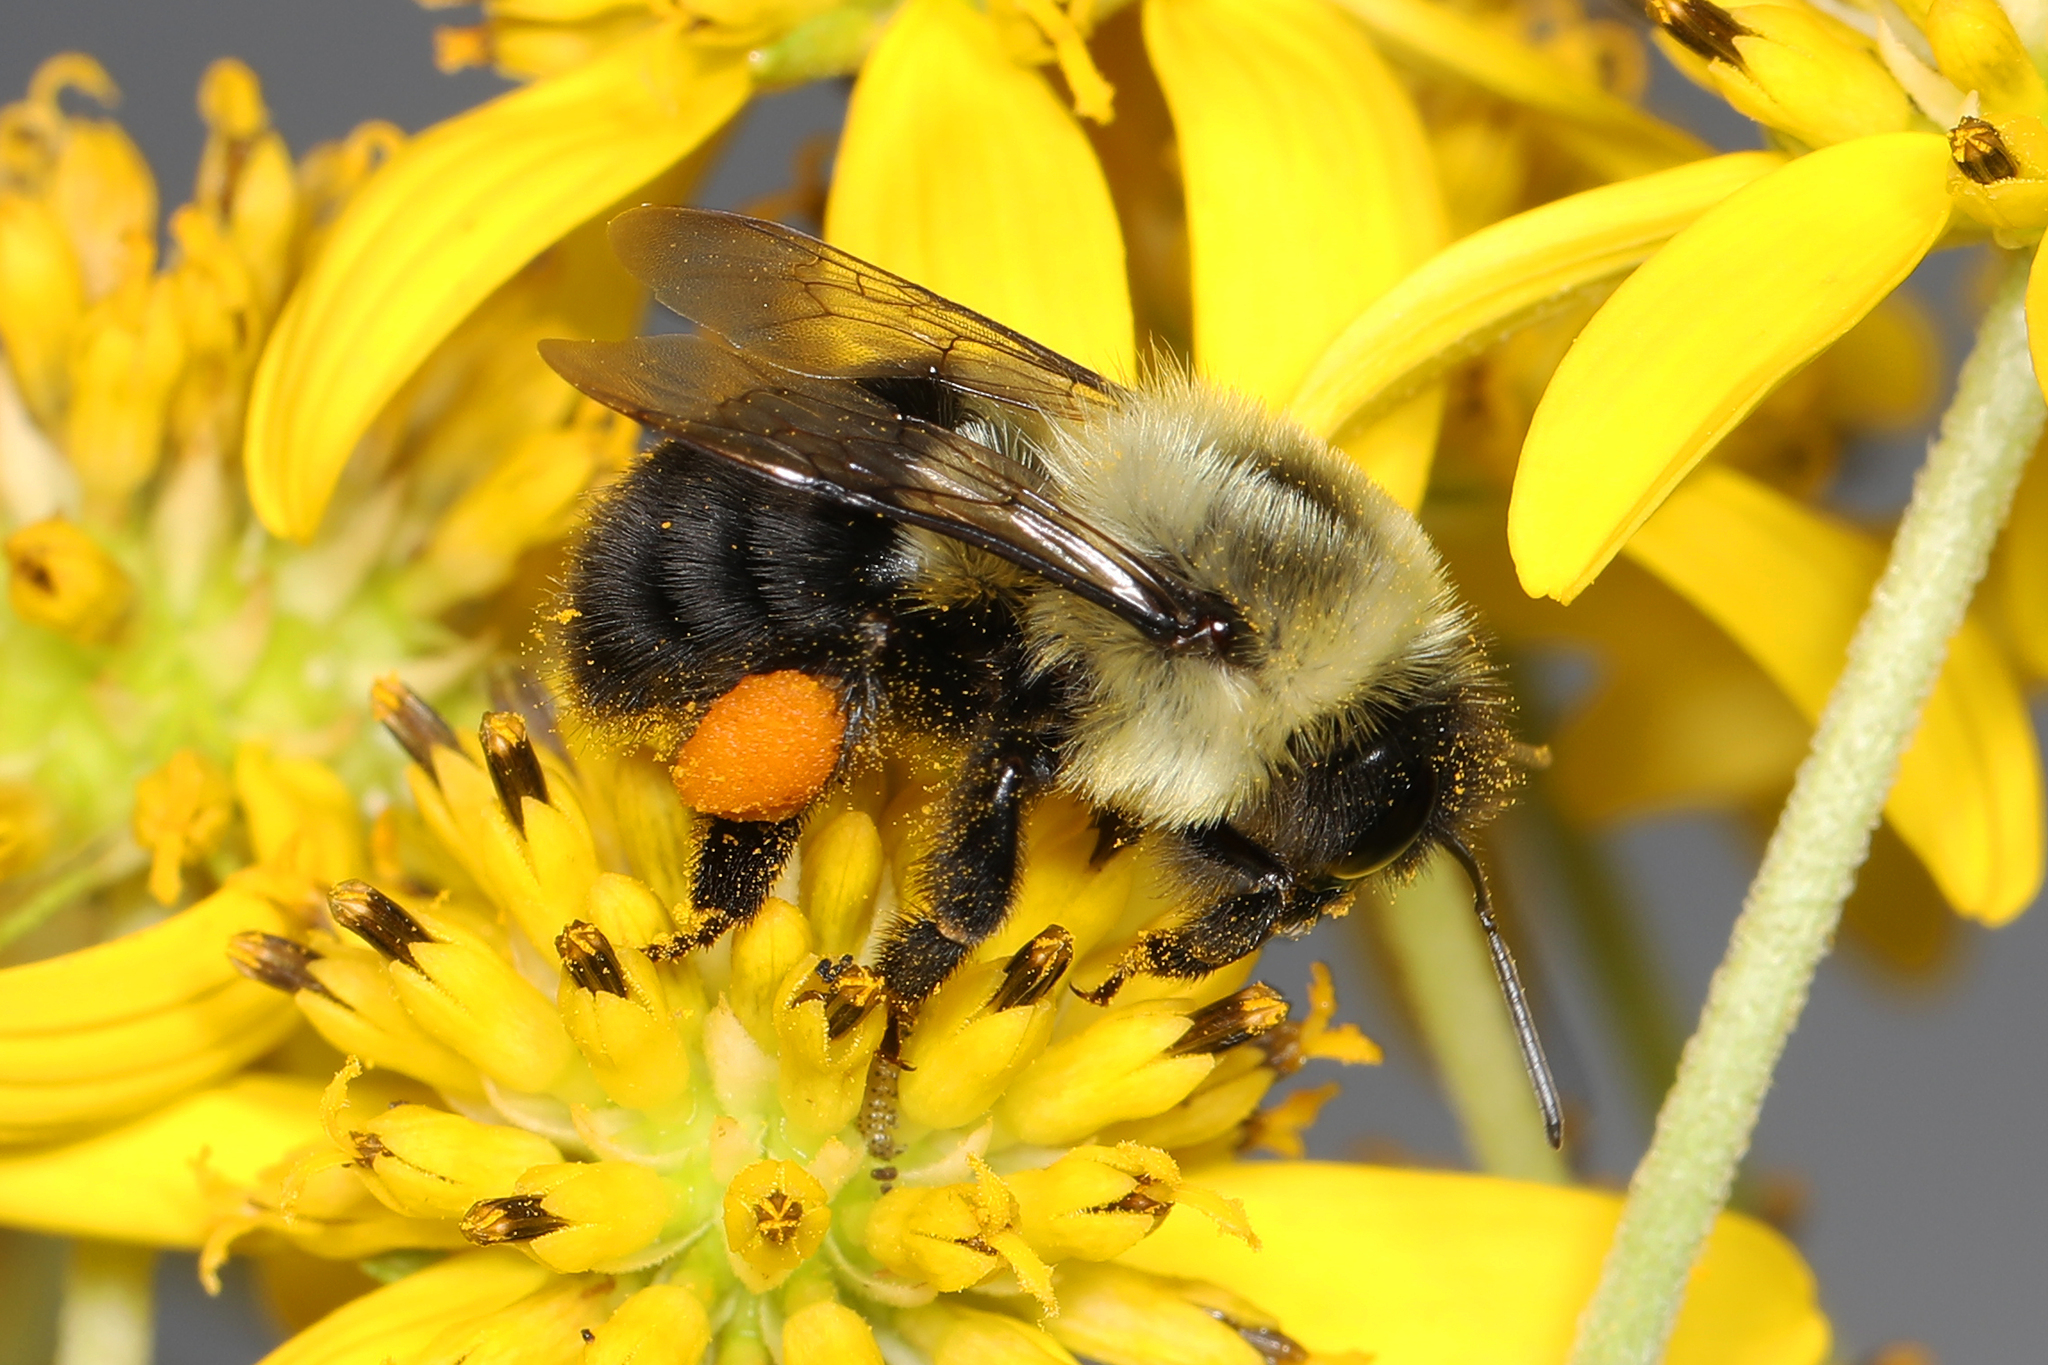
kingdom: Animalia
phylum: Arthropoda
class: Insecta
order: Hymenoptera
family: Apidae
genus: Bombus
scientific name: Bombus impatiens
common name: Common eastern bumble bee
